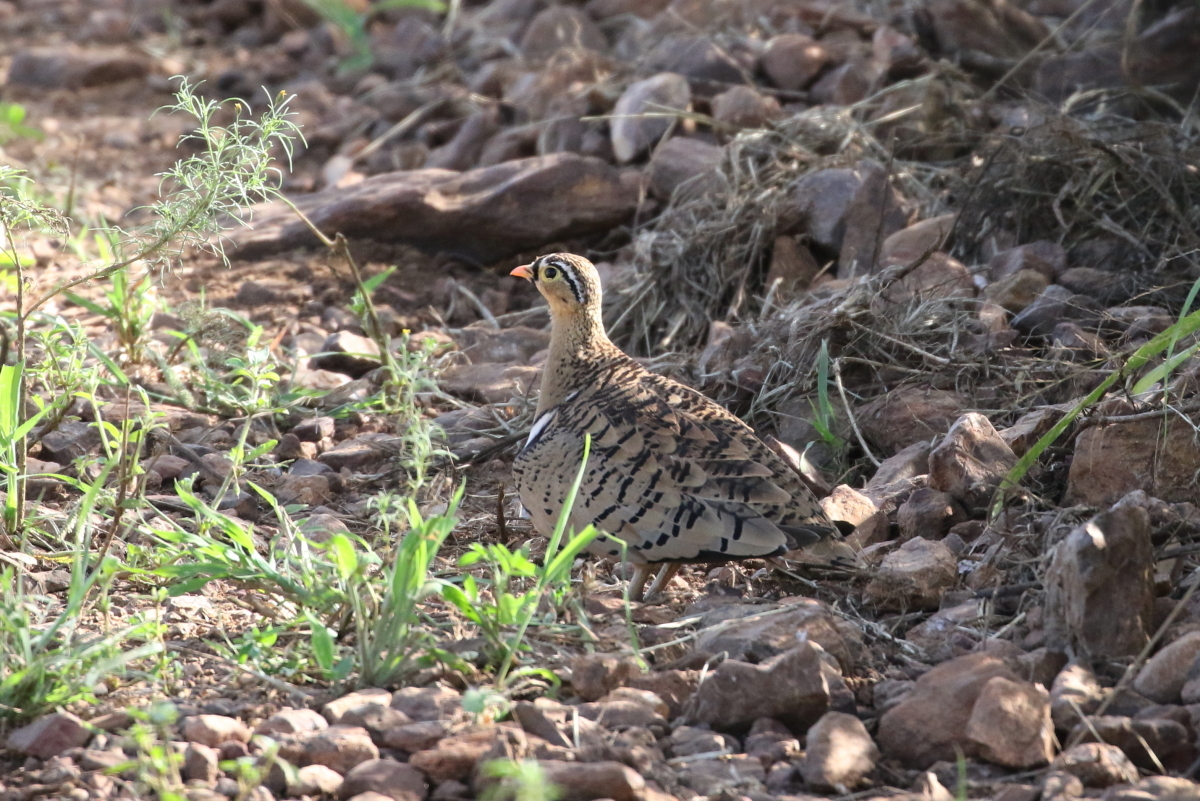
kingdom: Animalia
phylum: Chordata
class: Aves
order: Pteroclidiformes
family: Pteroclididae
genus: Pterocles
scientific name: Pterocles decoratus
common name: Black-faced sandgrouse
